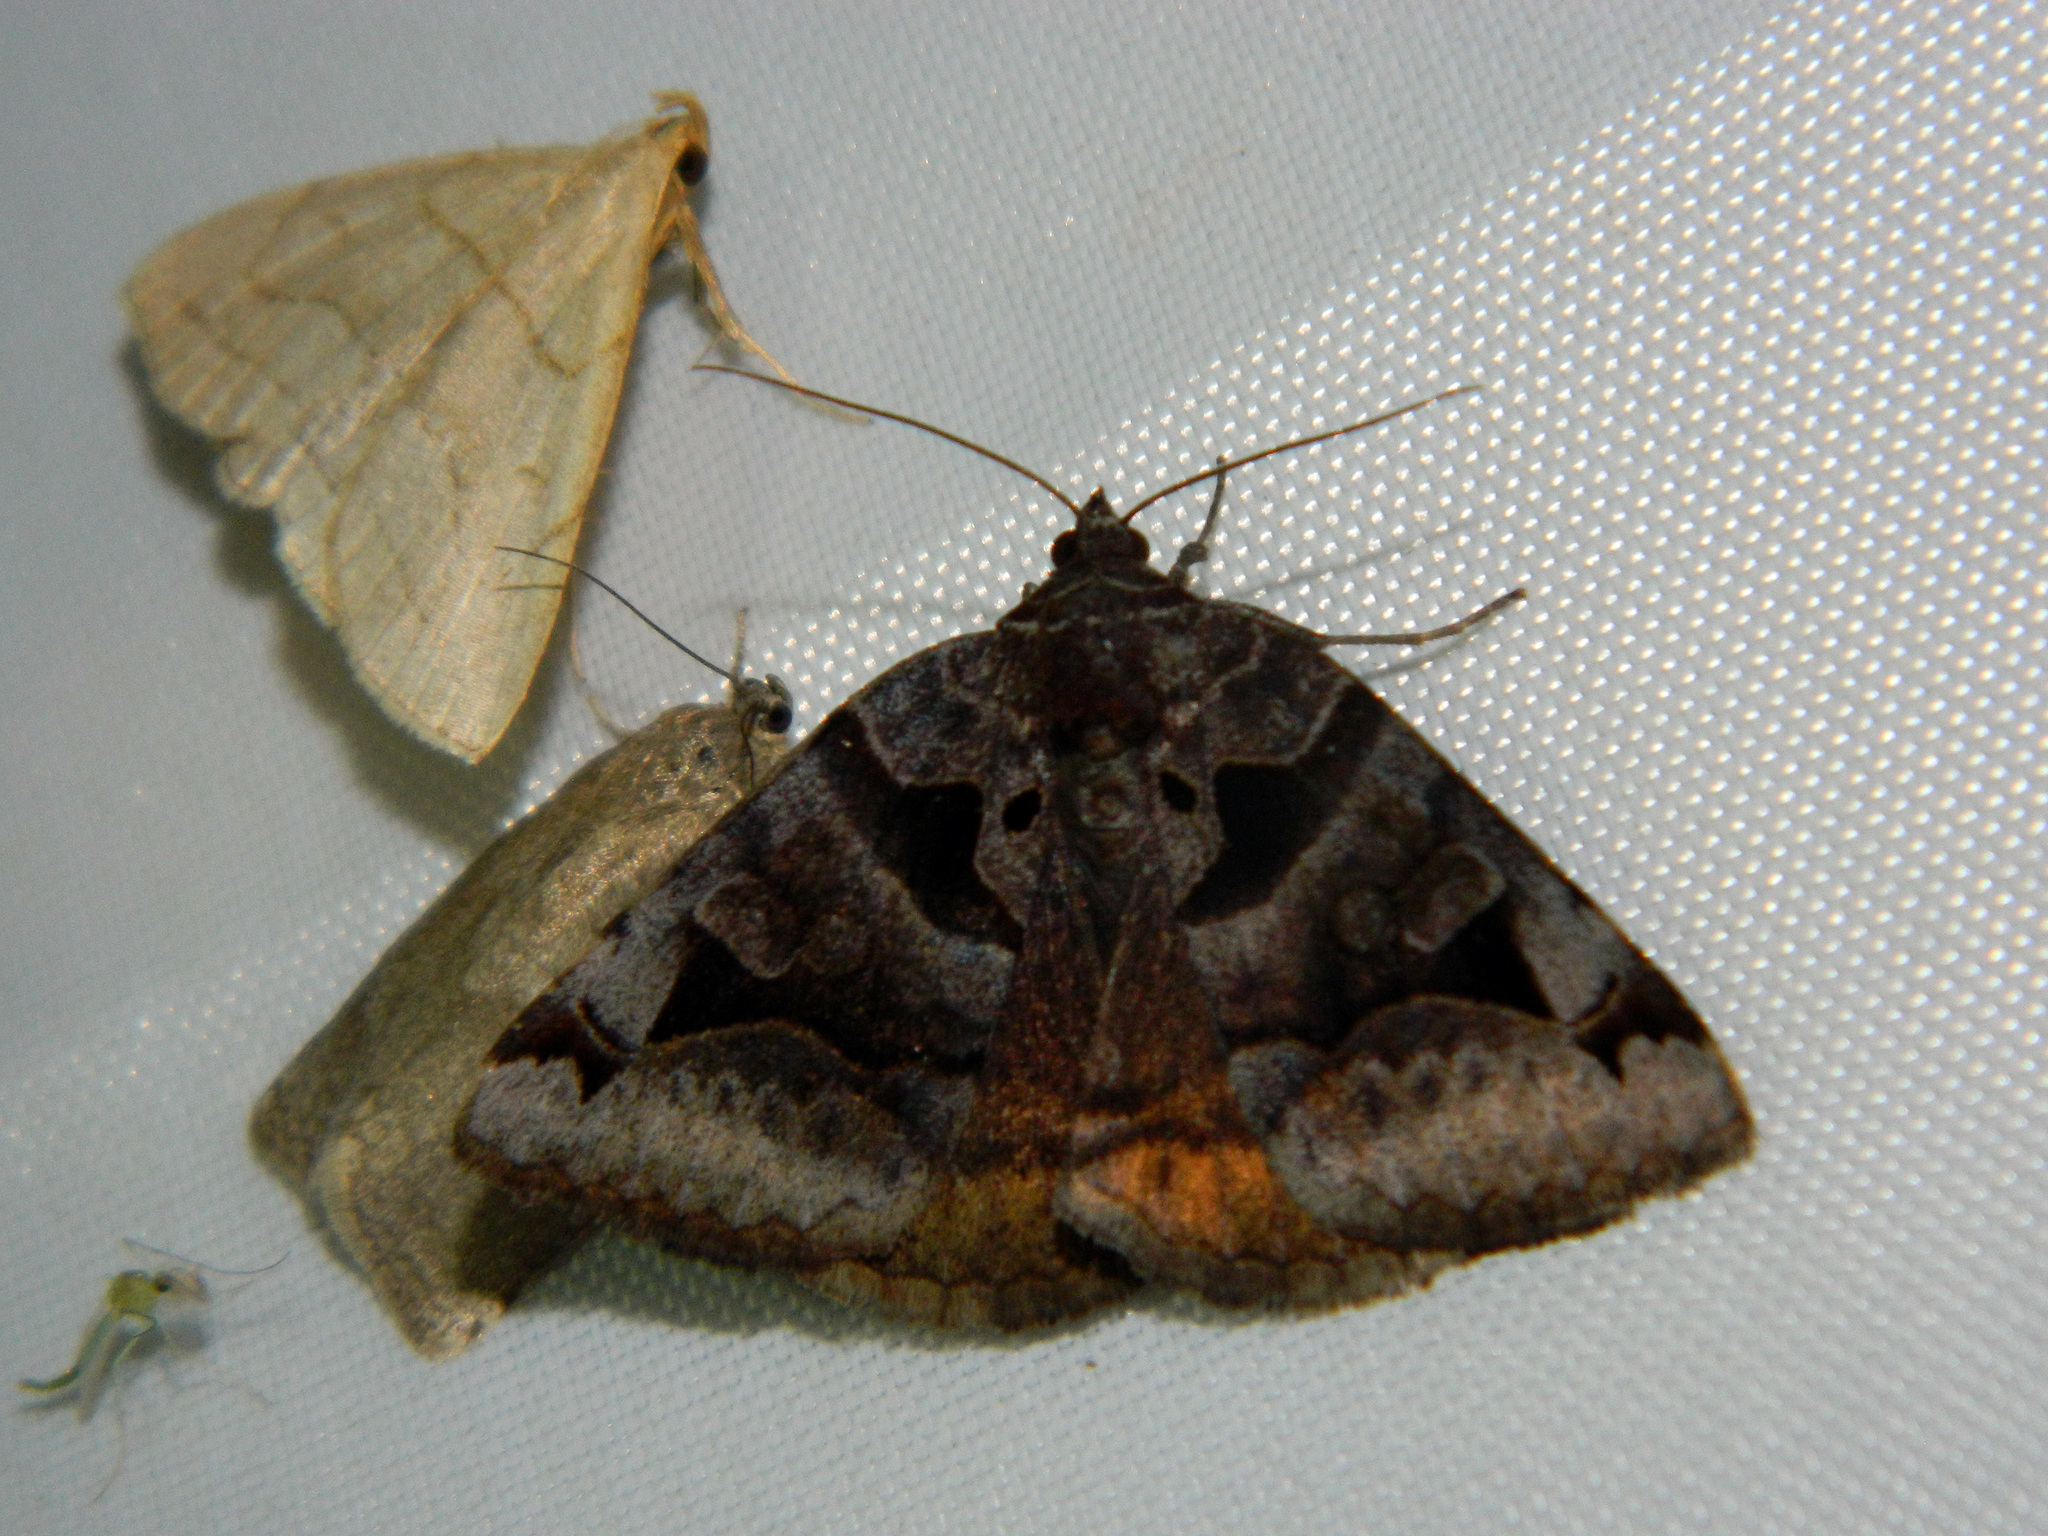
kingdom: Animalia
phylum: Arthropoda
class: Insecta
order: Lepidoptera
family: Erebidae
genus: Euclidia
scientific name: Euclidia cuspidea
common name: Toothed somberwing
